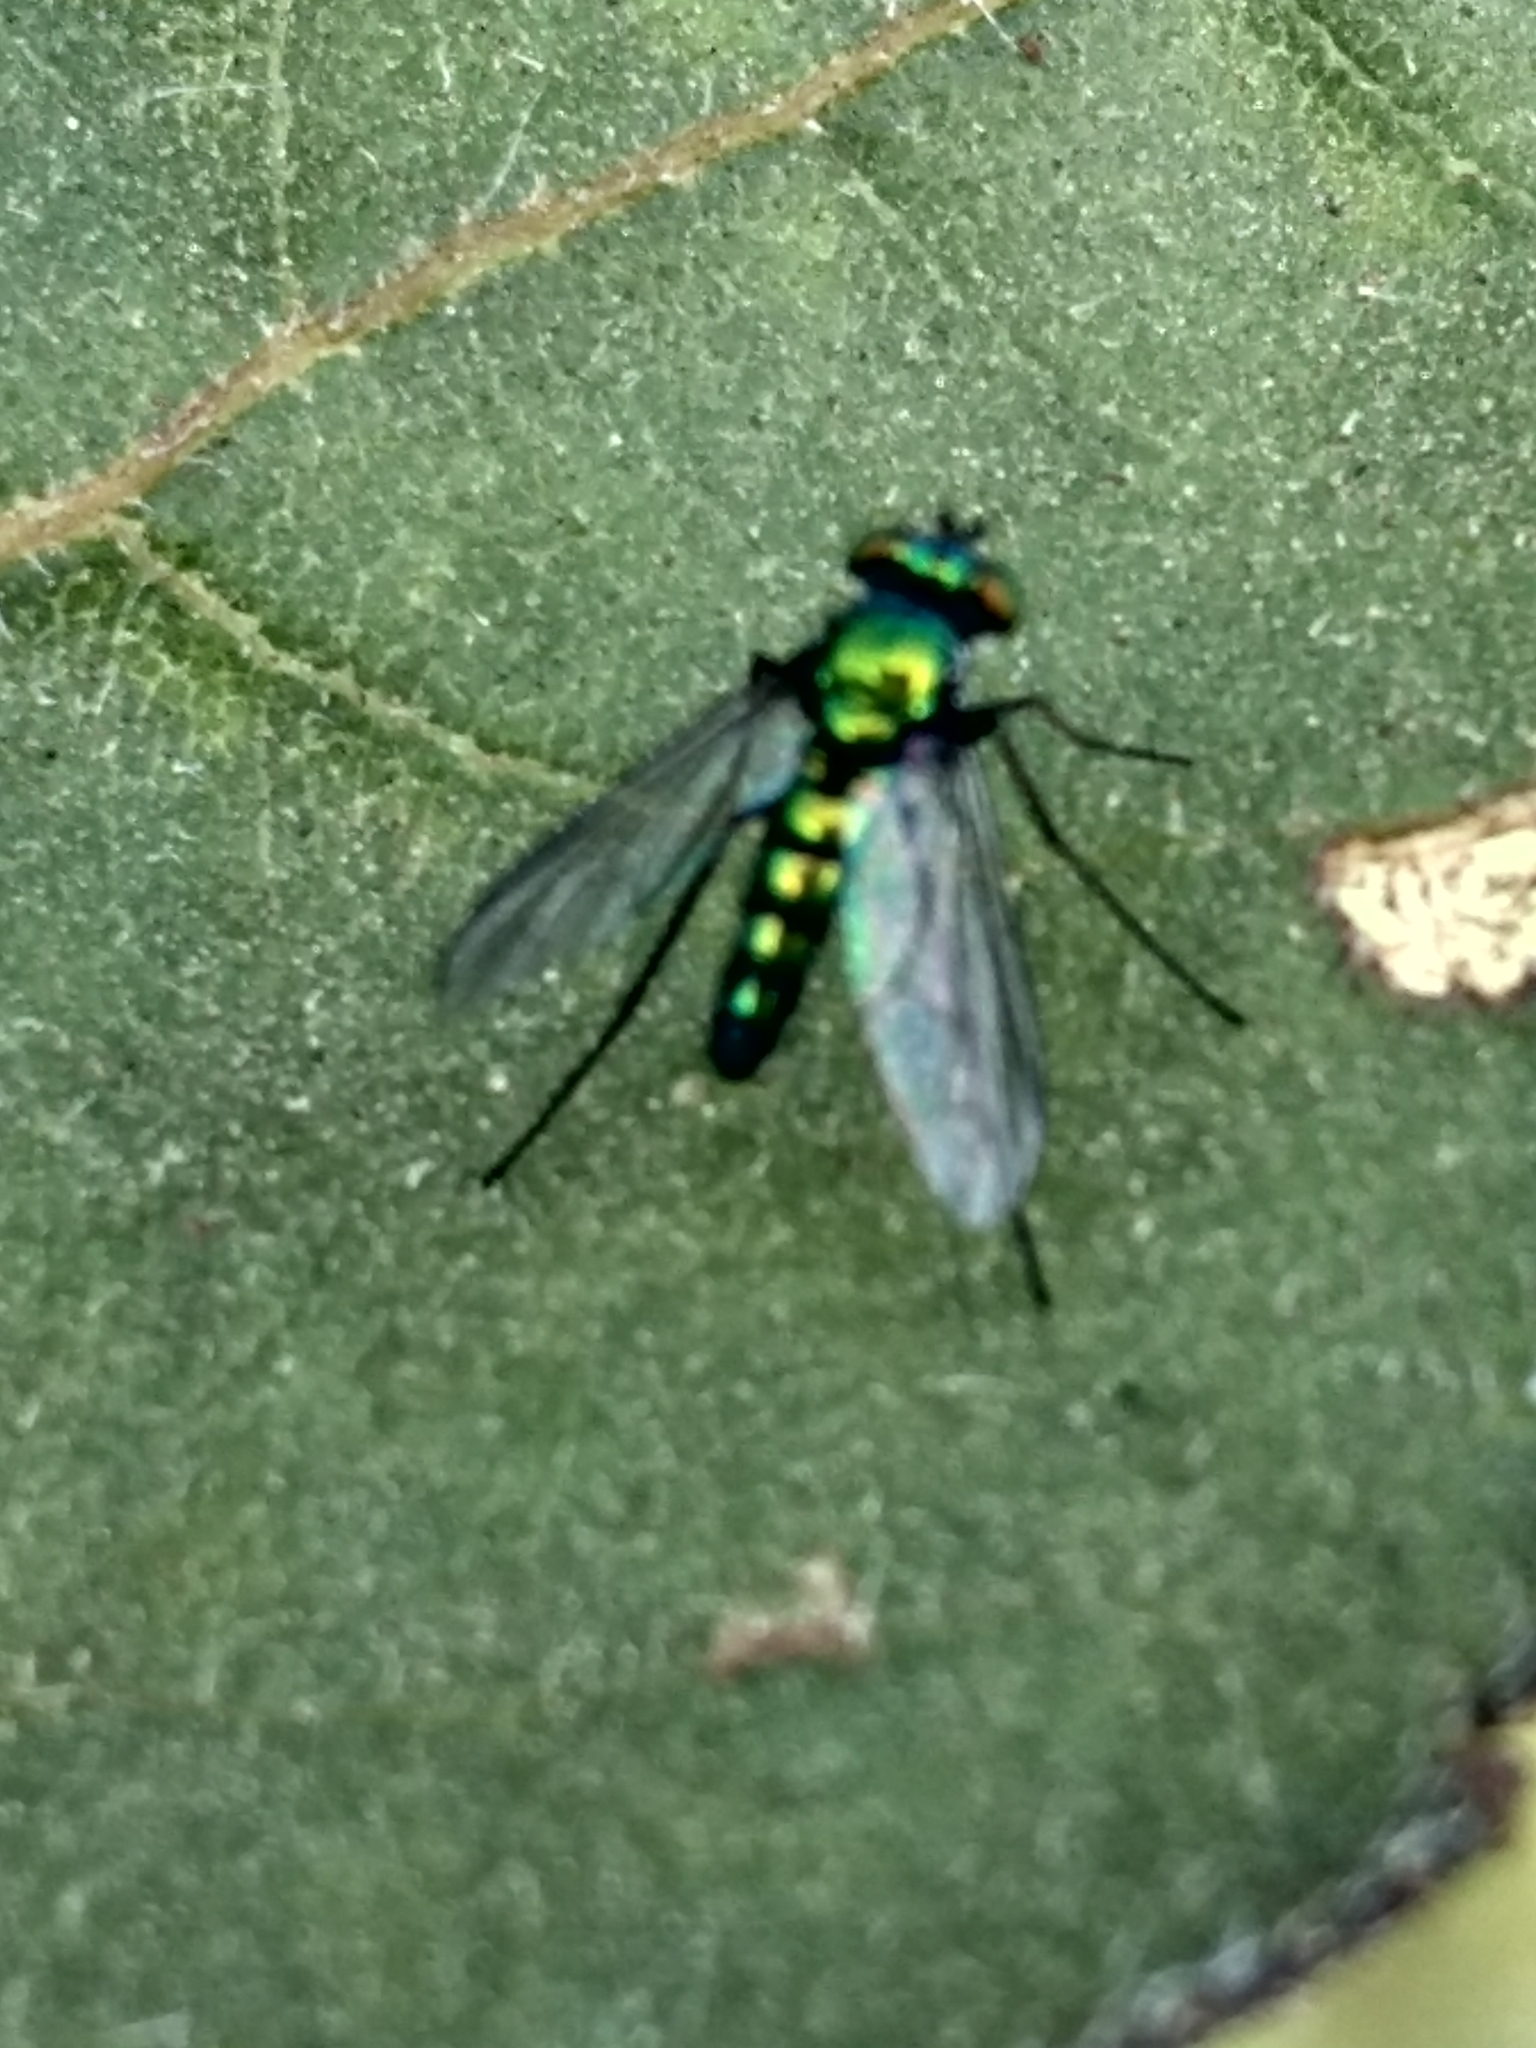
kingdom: Animalia
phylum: Arthropoda
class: Insecta
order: Diptera
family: Dolichopodidae
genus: Condylostylus
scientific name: Condylostylus longicornis
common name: Long-legged fly
